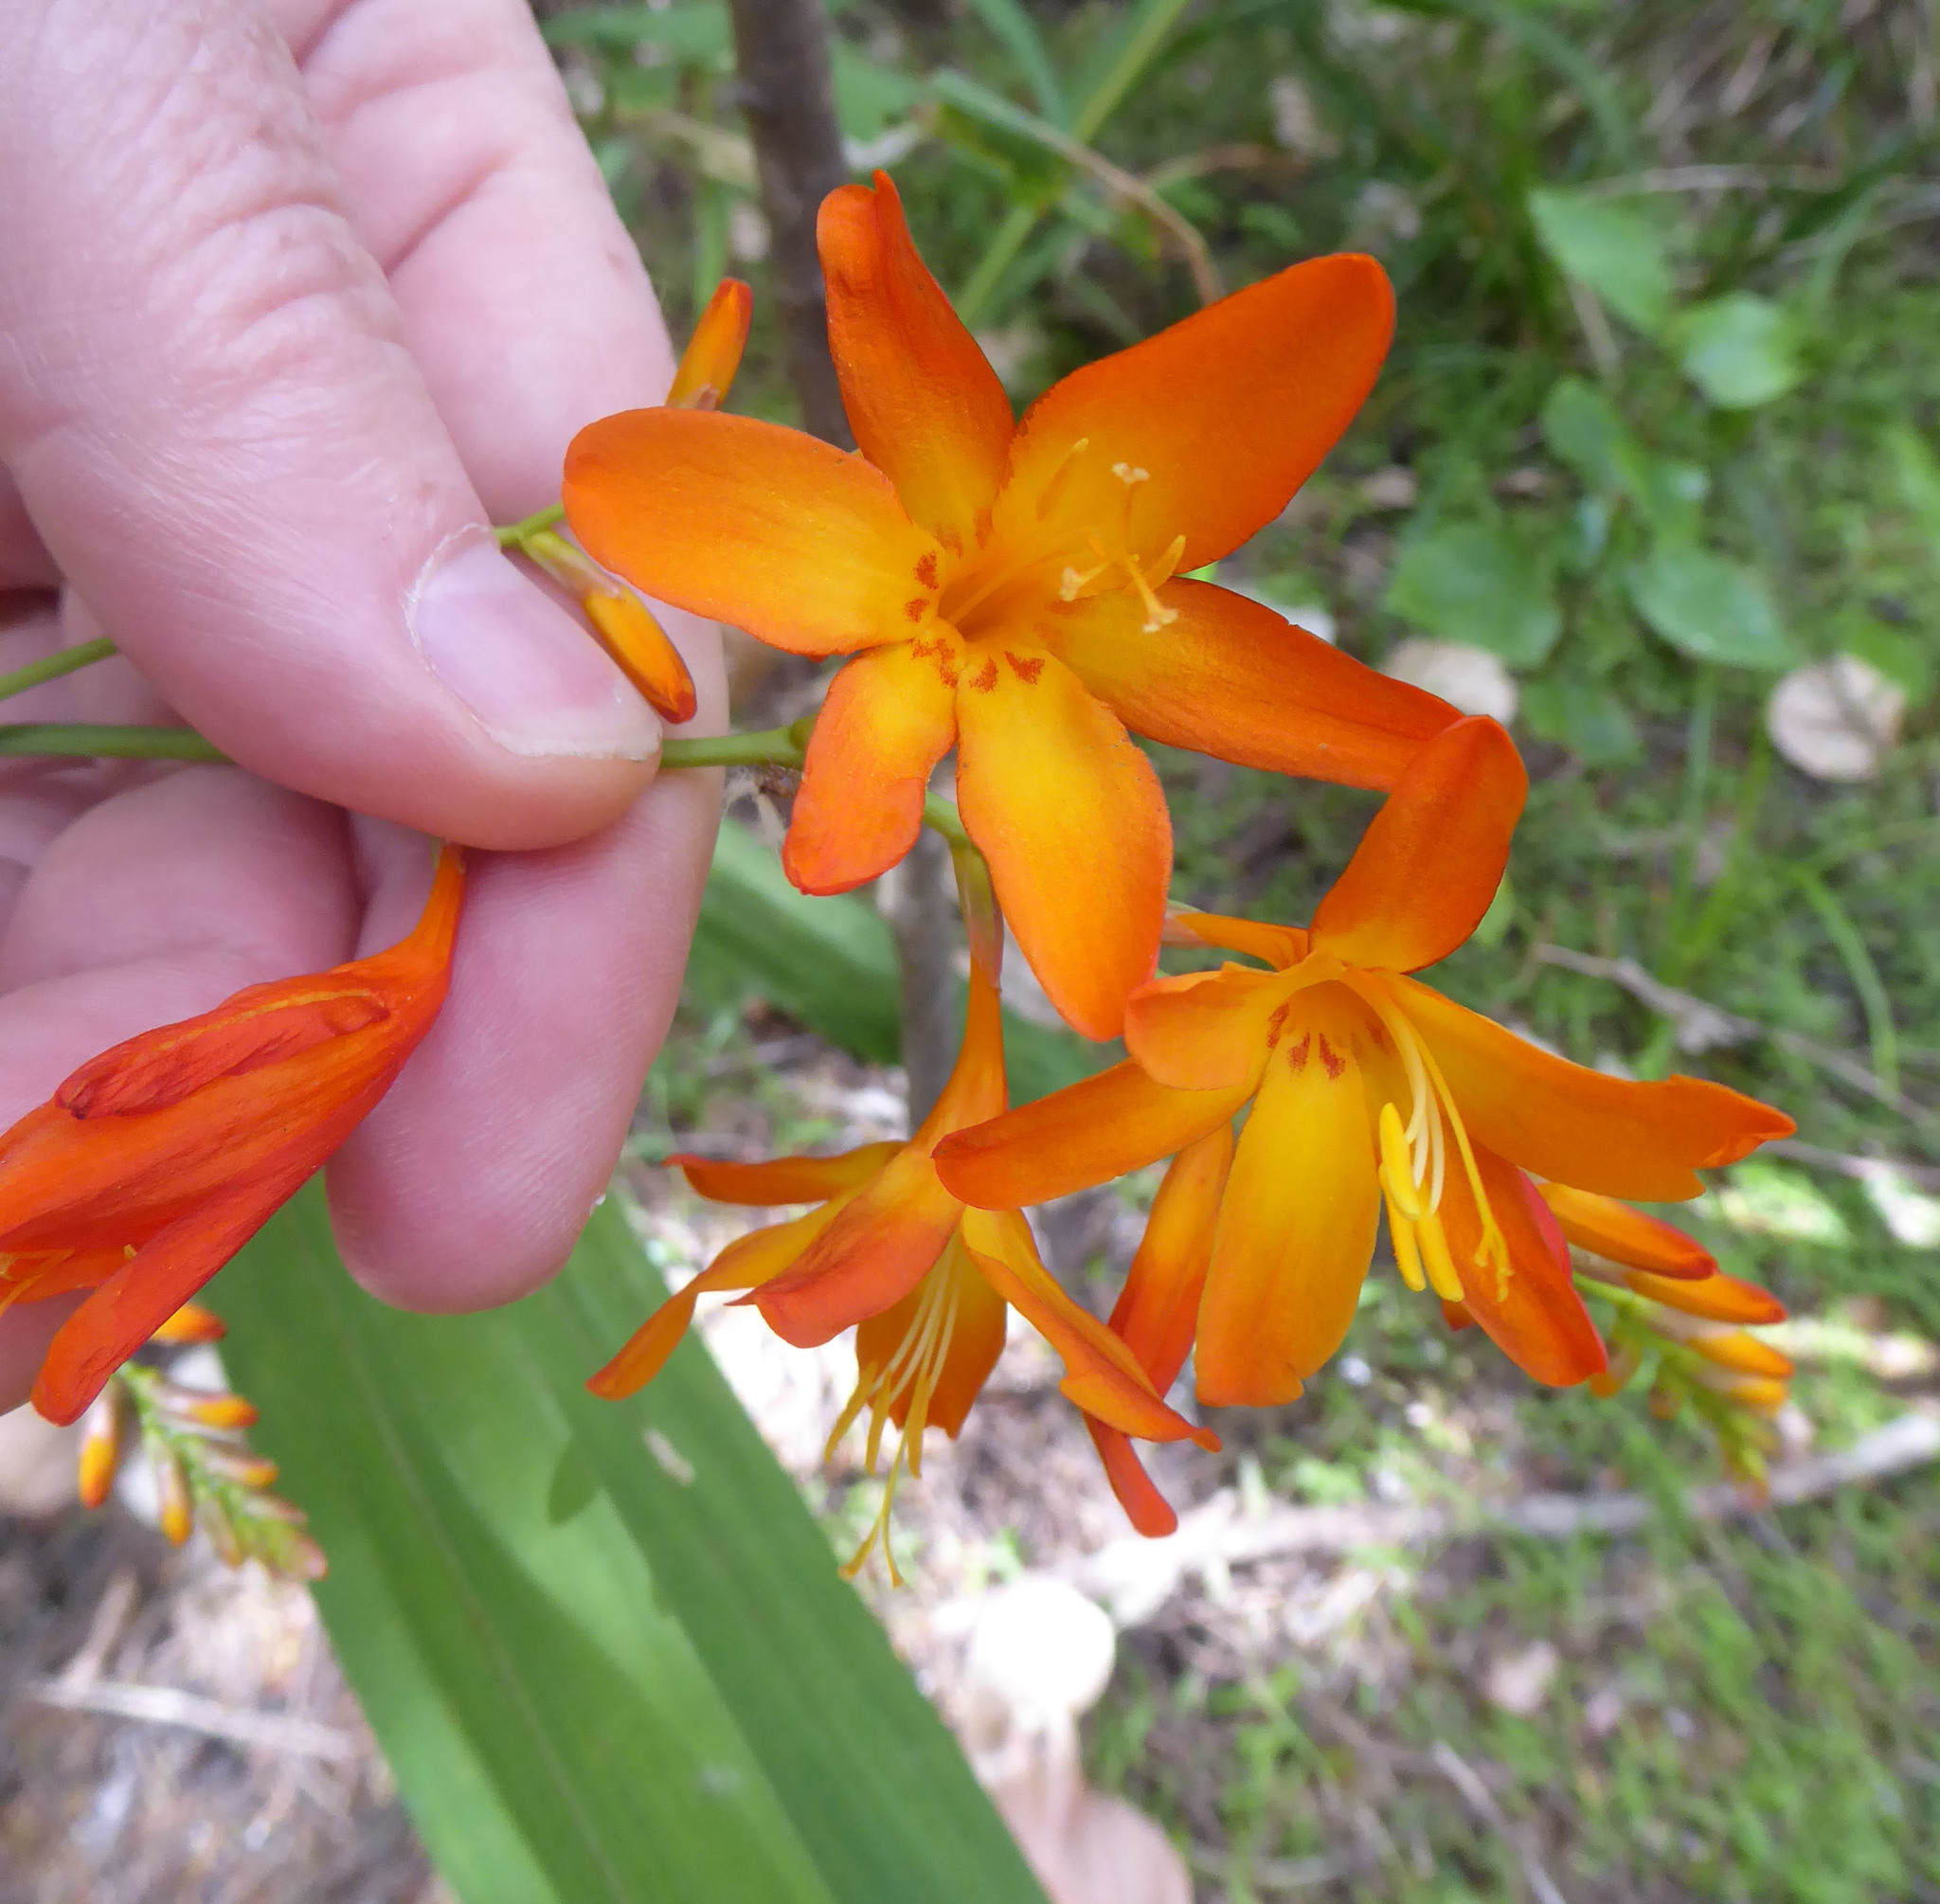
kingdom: Plantae
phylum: Tracheophyta
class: Liliopsida
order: Asparagales
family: Iridaceae
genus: Crocosmia
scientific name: Crocosmia crocosmiiflora
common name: Montbretia
